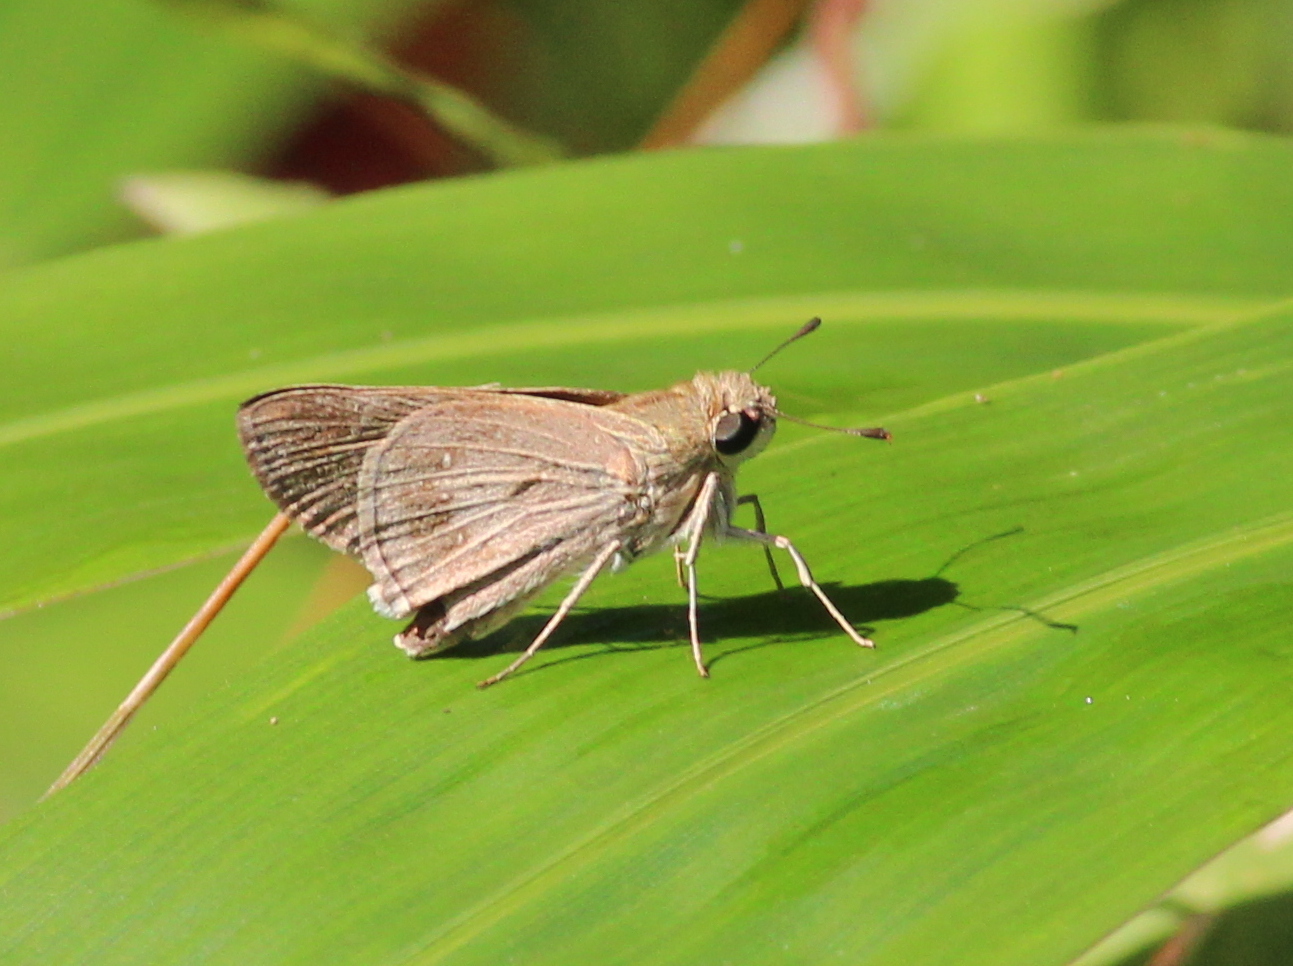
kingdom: Animalia
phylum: Arthropoda
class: Insecta
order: Lepidoptera
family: Hesperiidae
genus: Pelopidas
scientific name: Pelopidas mathias
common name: Black-branded swift
